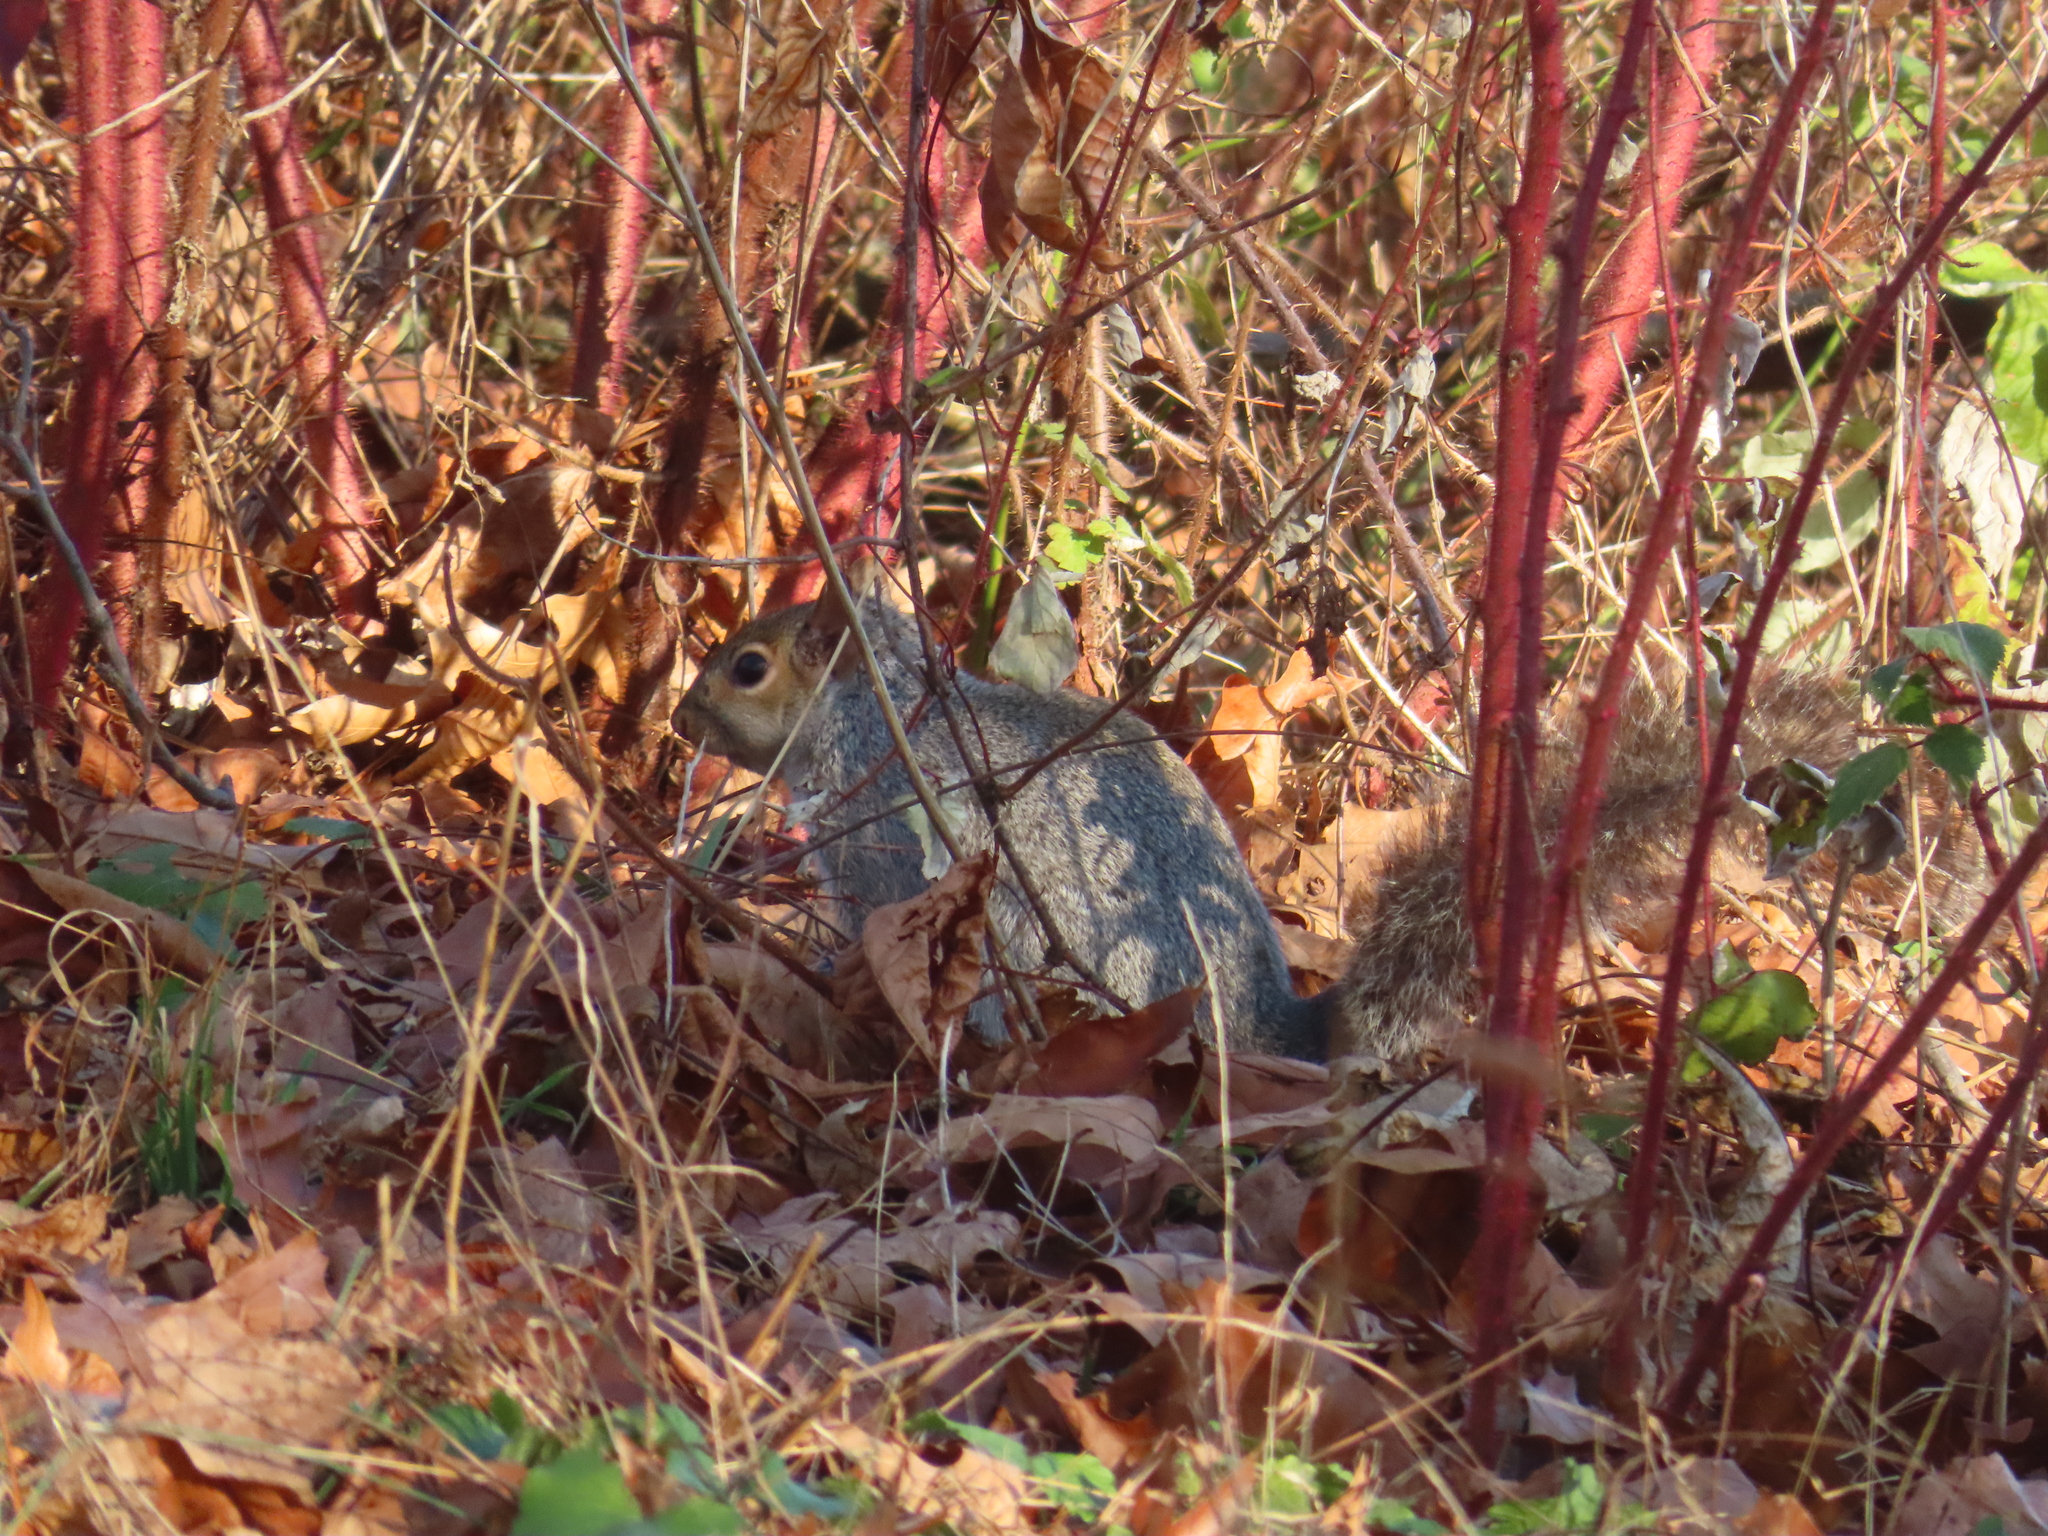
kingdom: Animalia
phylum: Chordata
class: Mammalia
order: Rodentia
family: Sciuridae
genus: Sciurus
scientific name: Sciurus carolinensis
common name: Eastern gray squirrel
